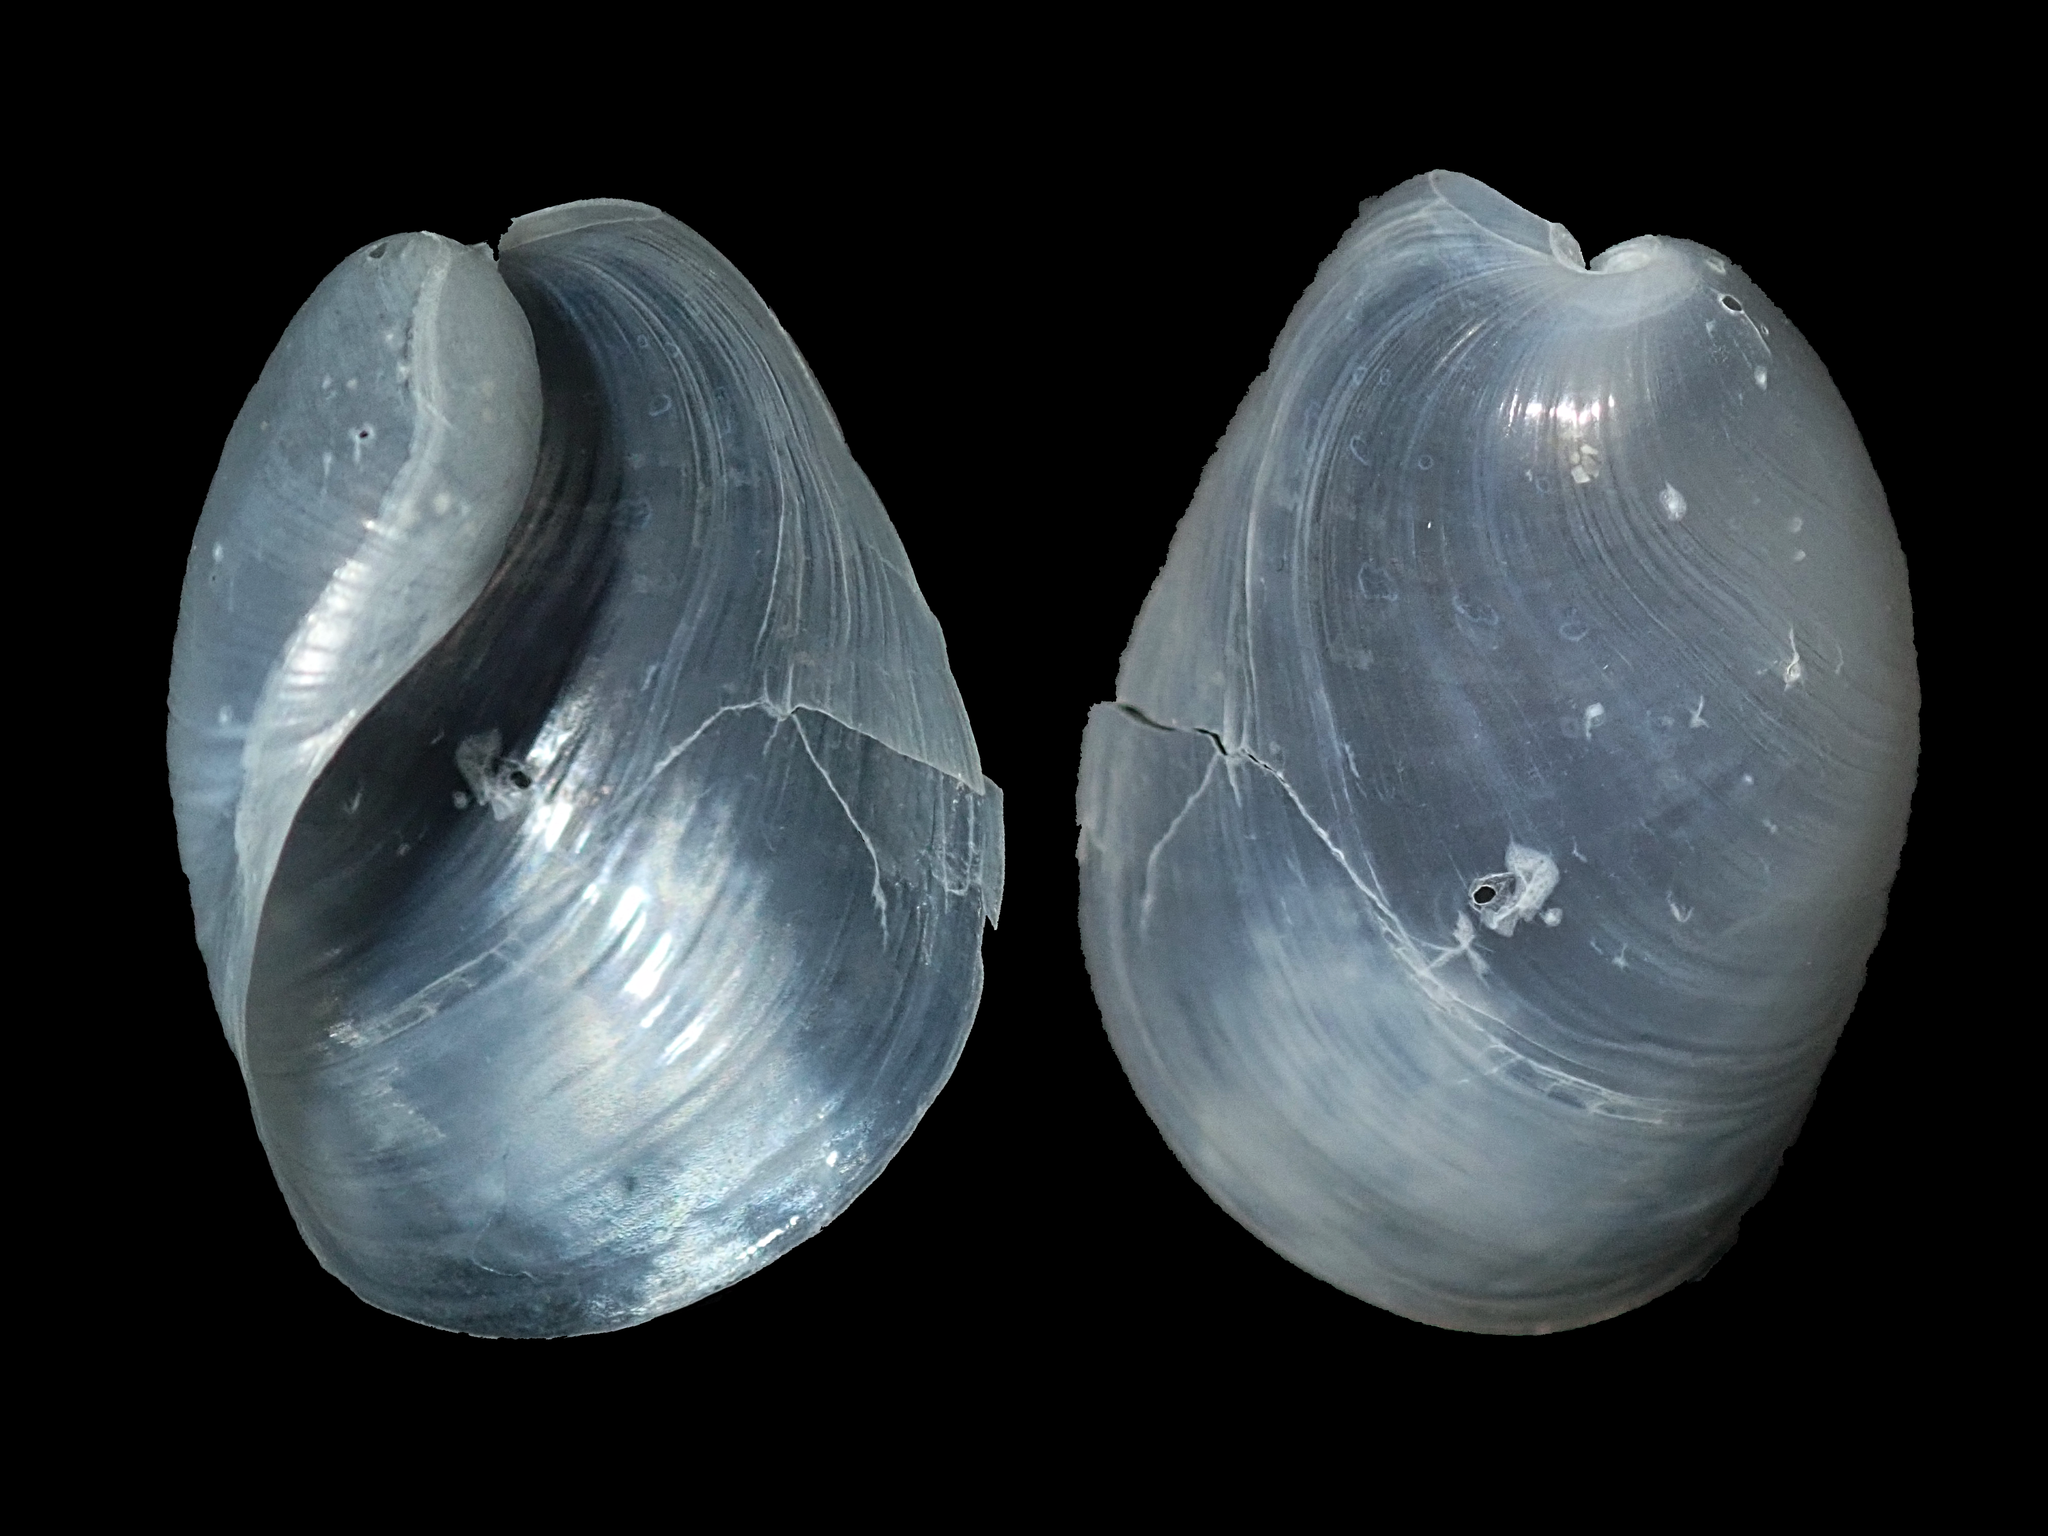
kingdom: Animalia
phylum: Mollusca
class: Gastropoda
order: Cephalaspidea
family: Philinidae
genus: Philine
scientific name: Philine angasi
